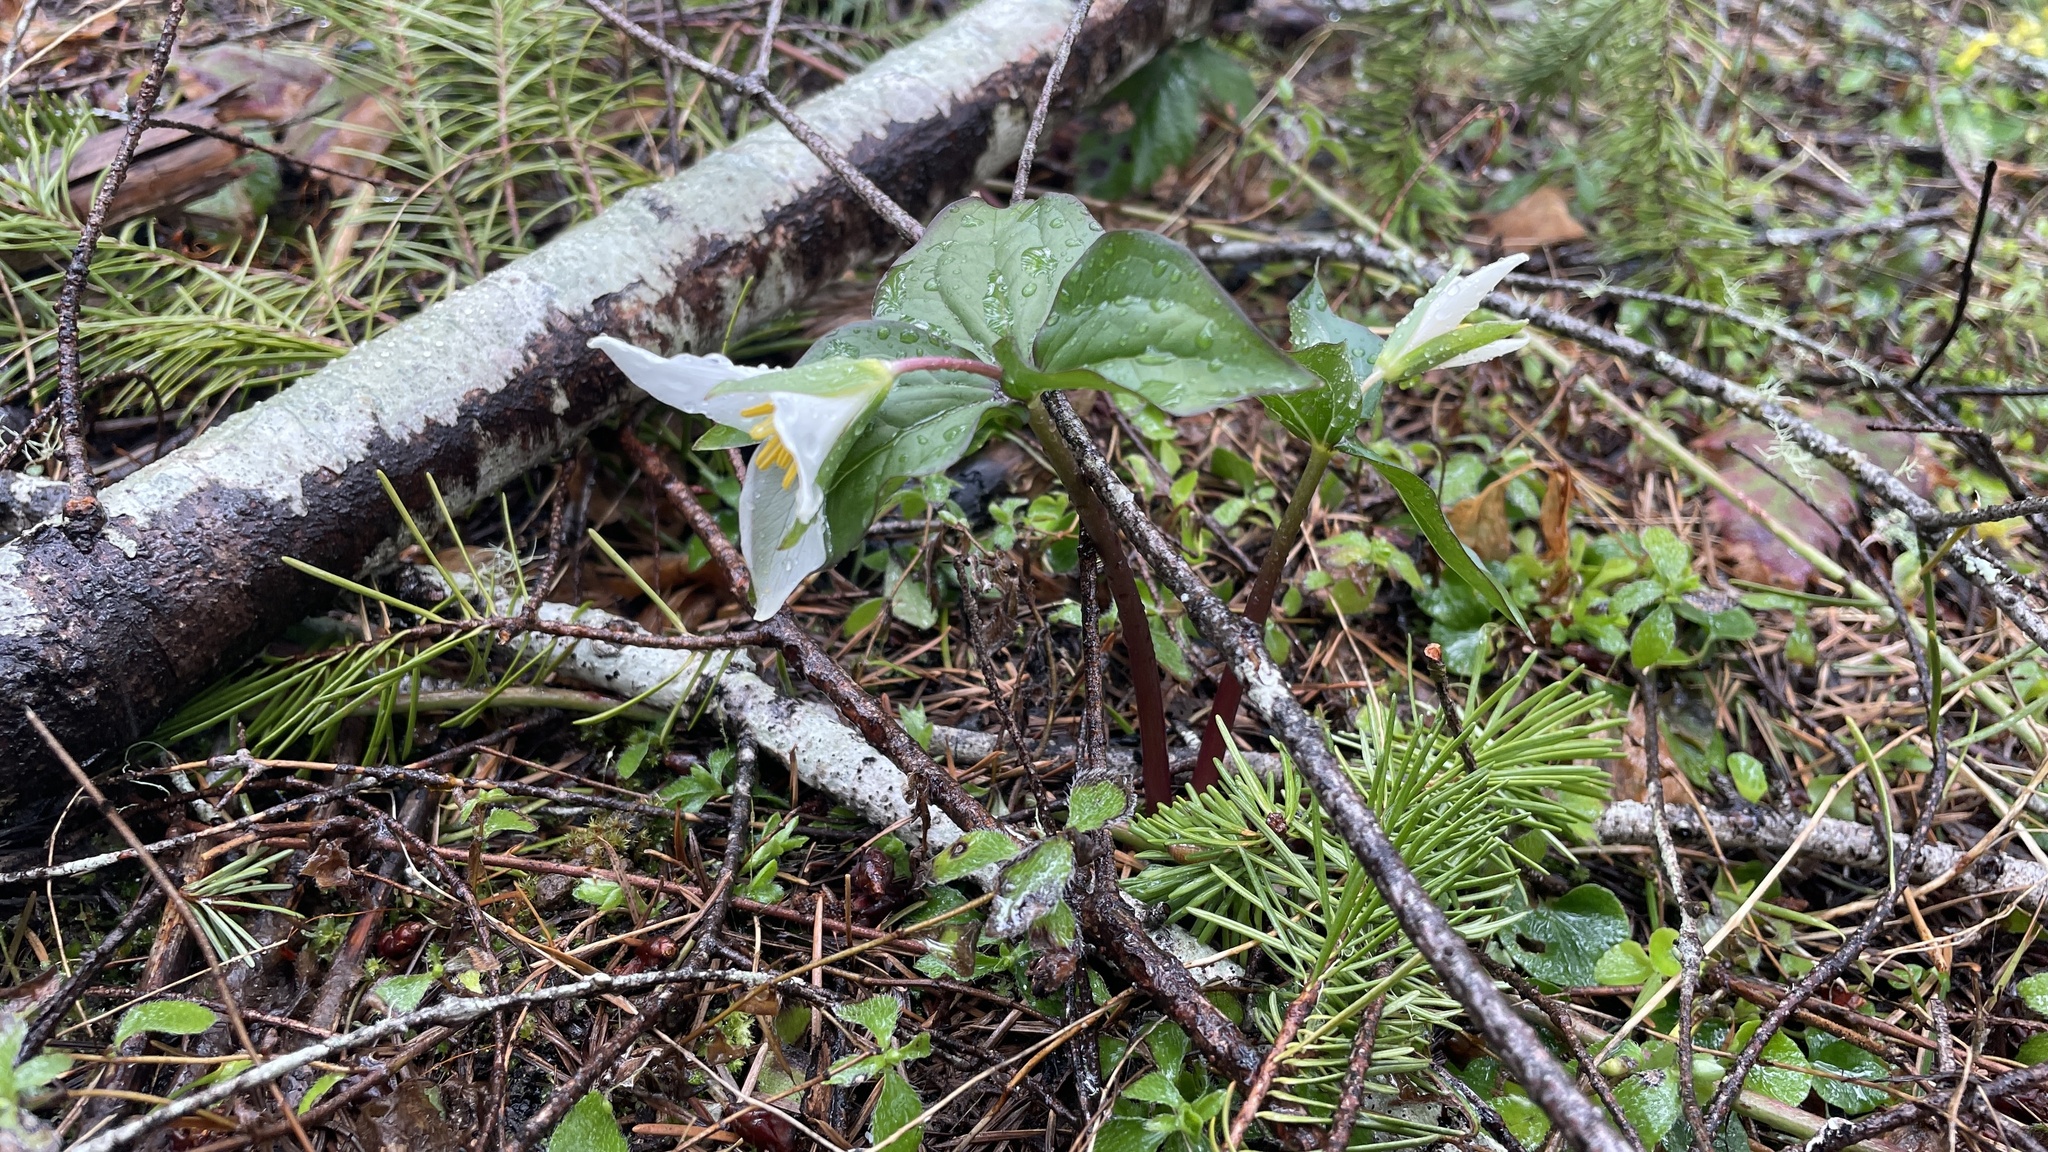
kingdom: Plantae
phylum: Tracheophyta
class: Liliopsida
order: Liliales
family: Melanthiaceae
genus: Trillium
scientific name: Trillium ovatum
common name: Pacific trillium
